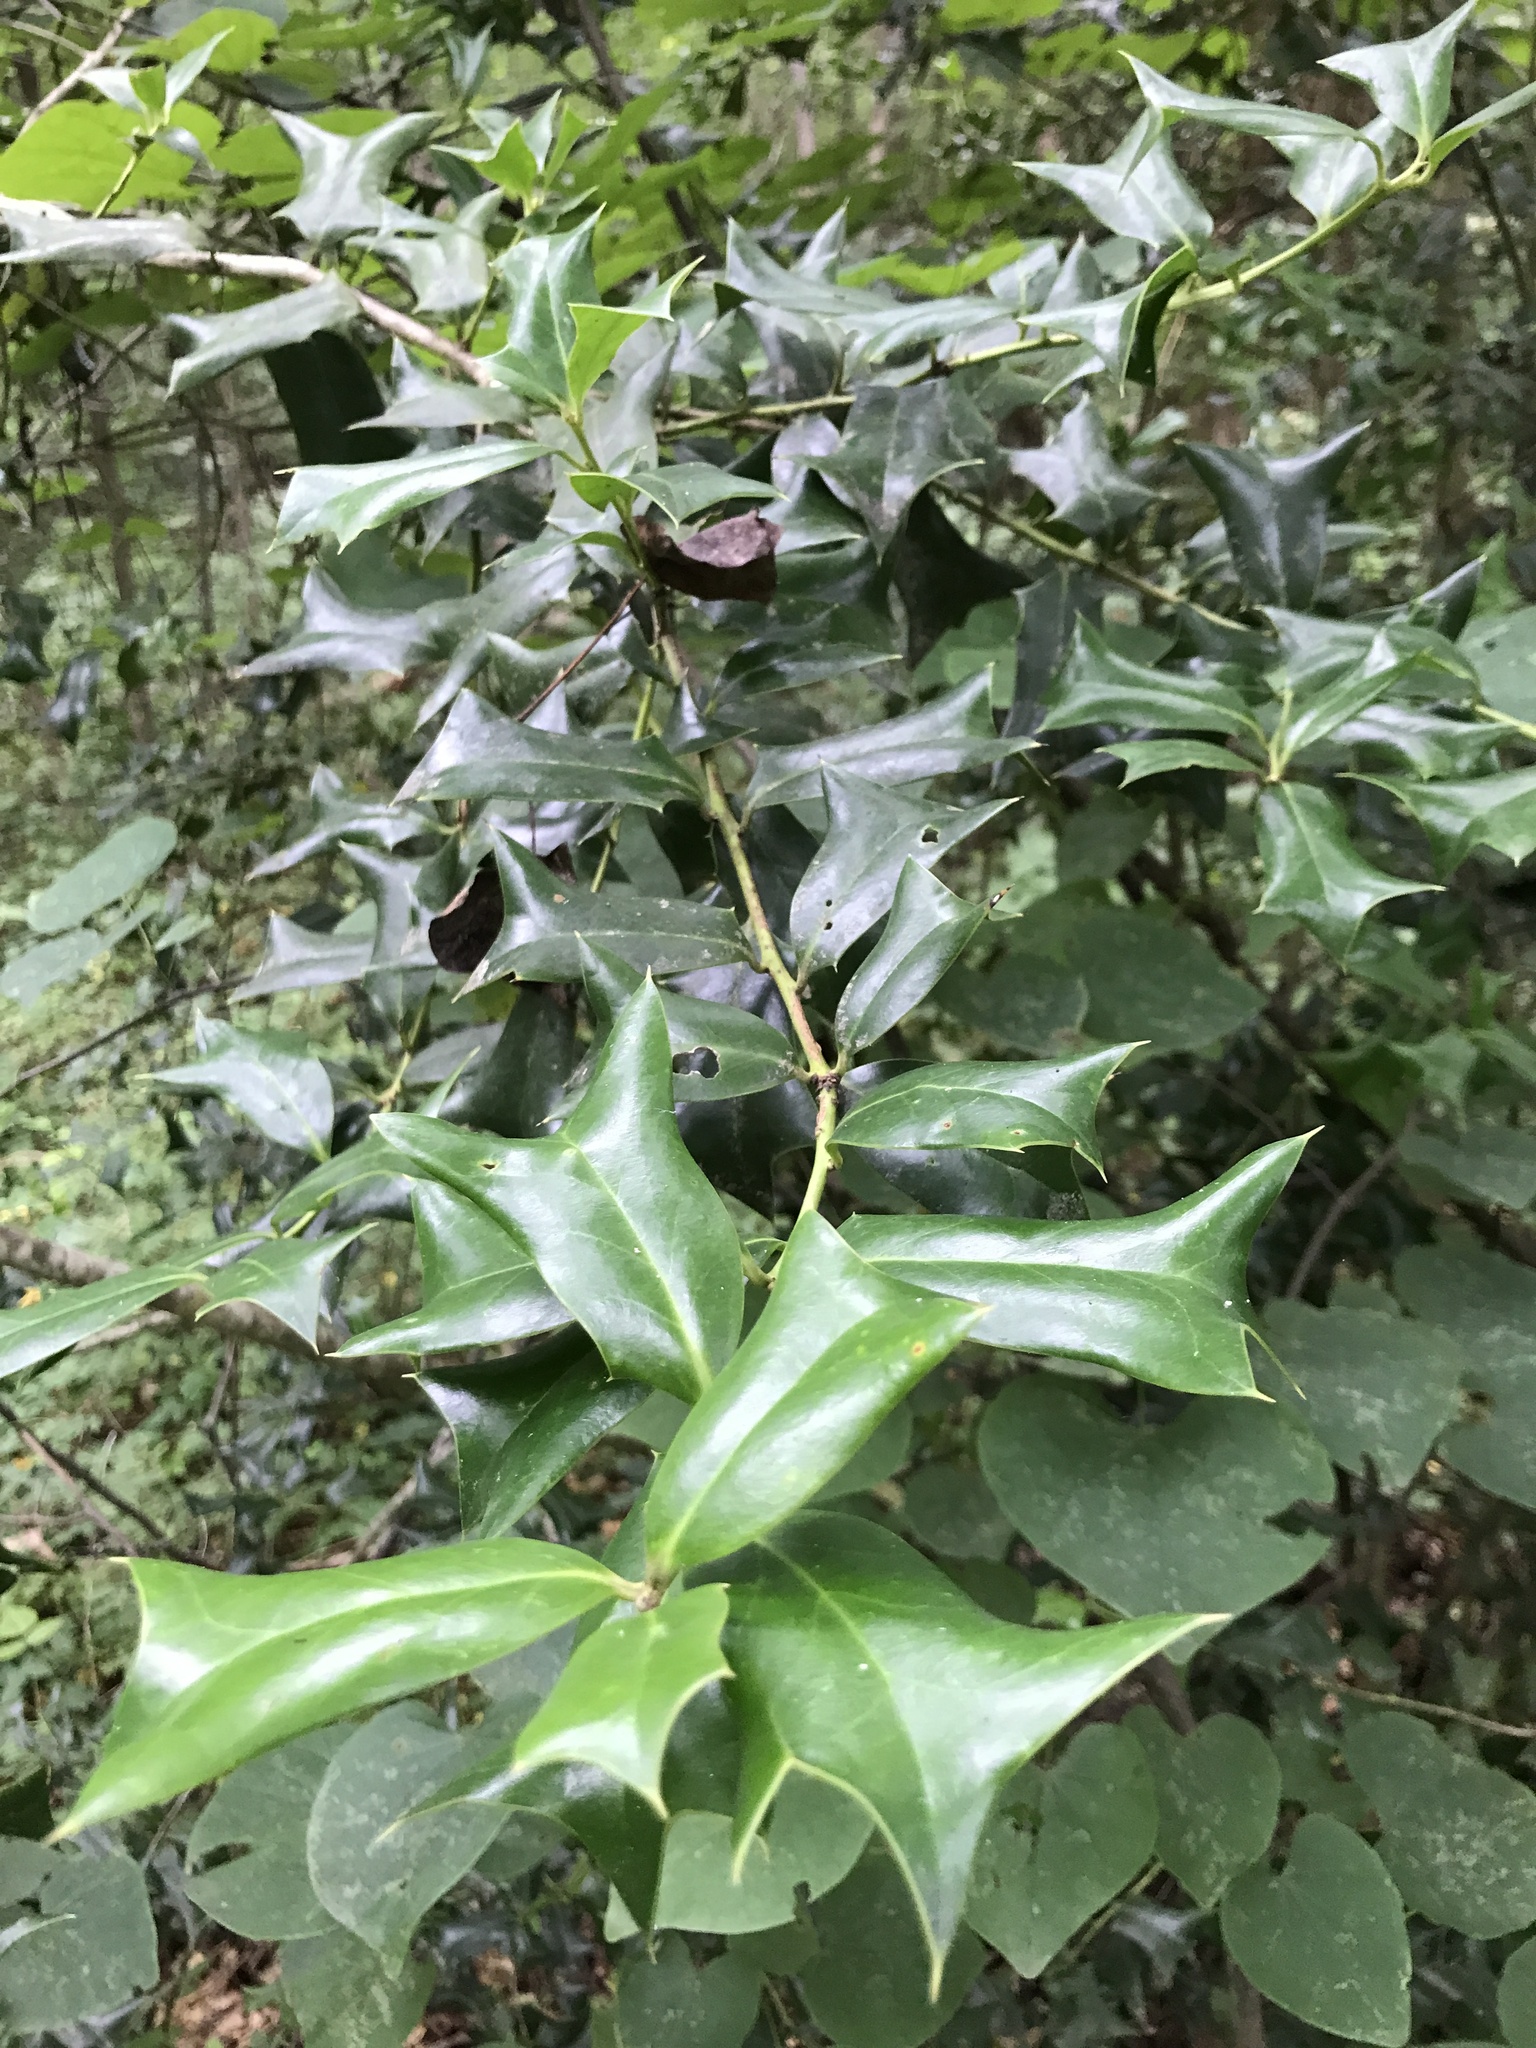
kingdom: Plantae
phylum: Tracheophyta
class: Magnoliopsida
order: Aquifoliales
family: Aquifoliaceae
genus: Ilex
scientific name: Ilex cornuta
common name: Chinese holly
